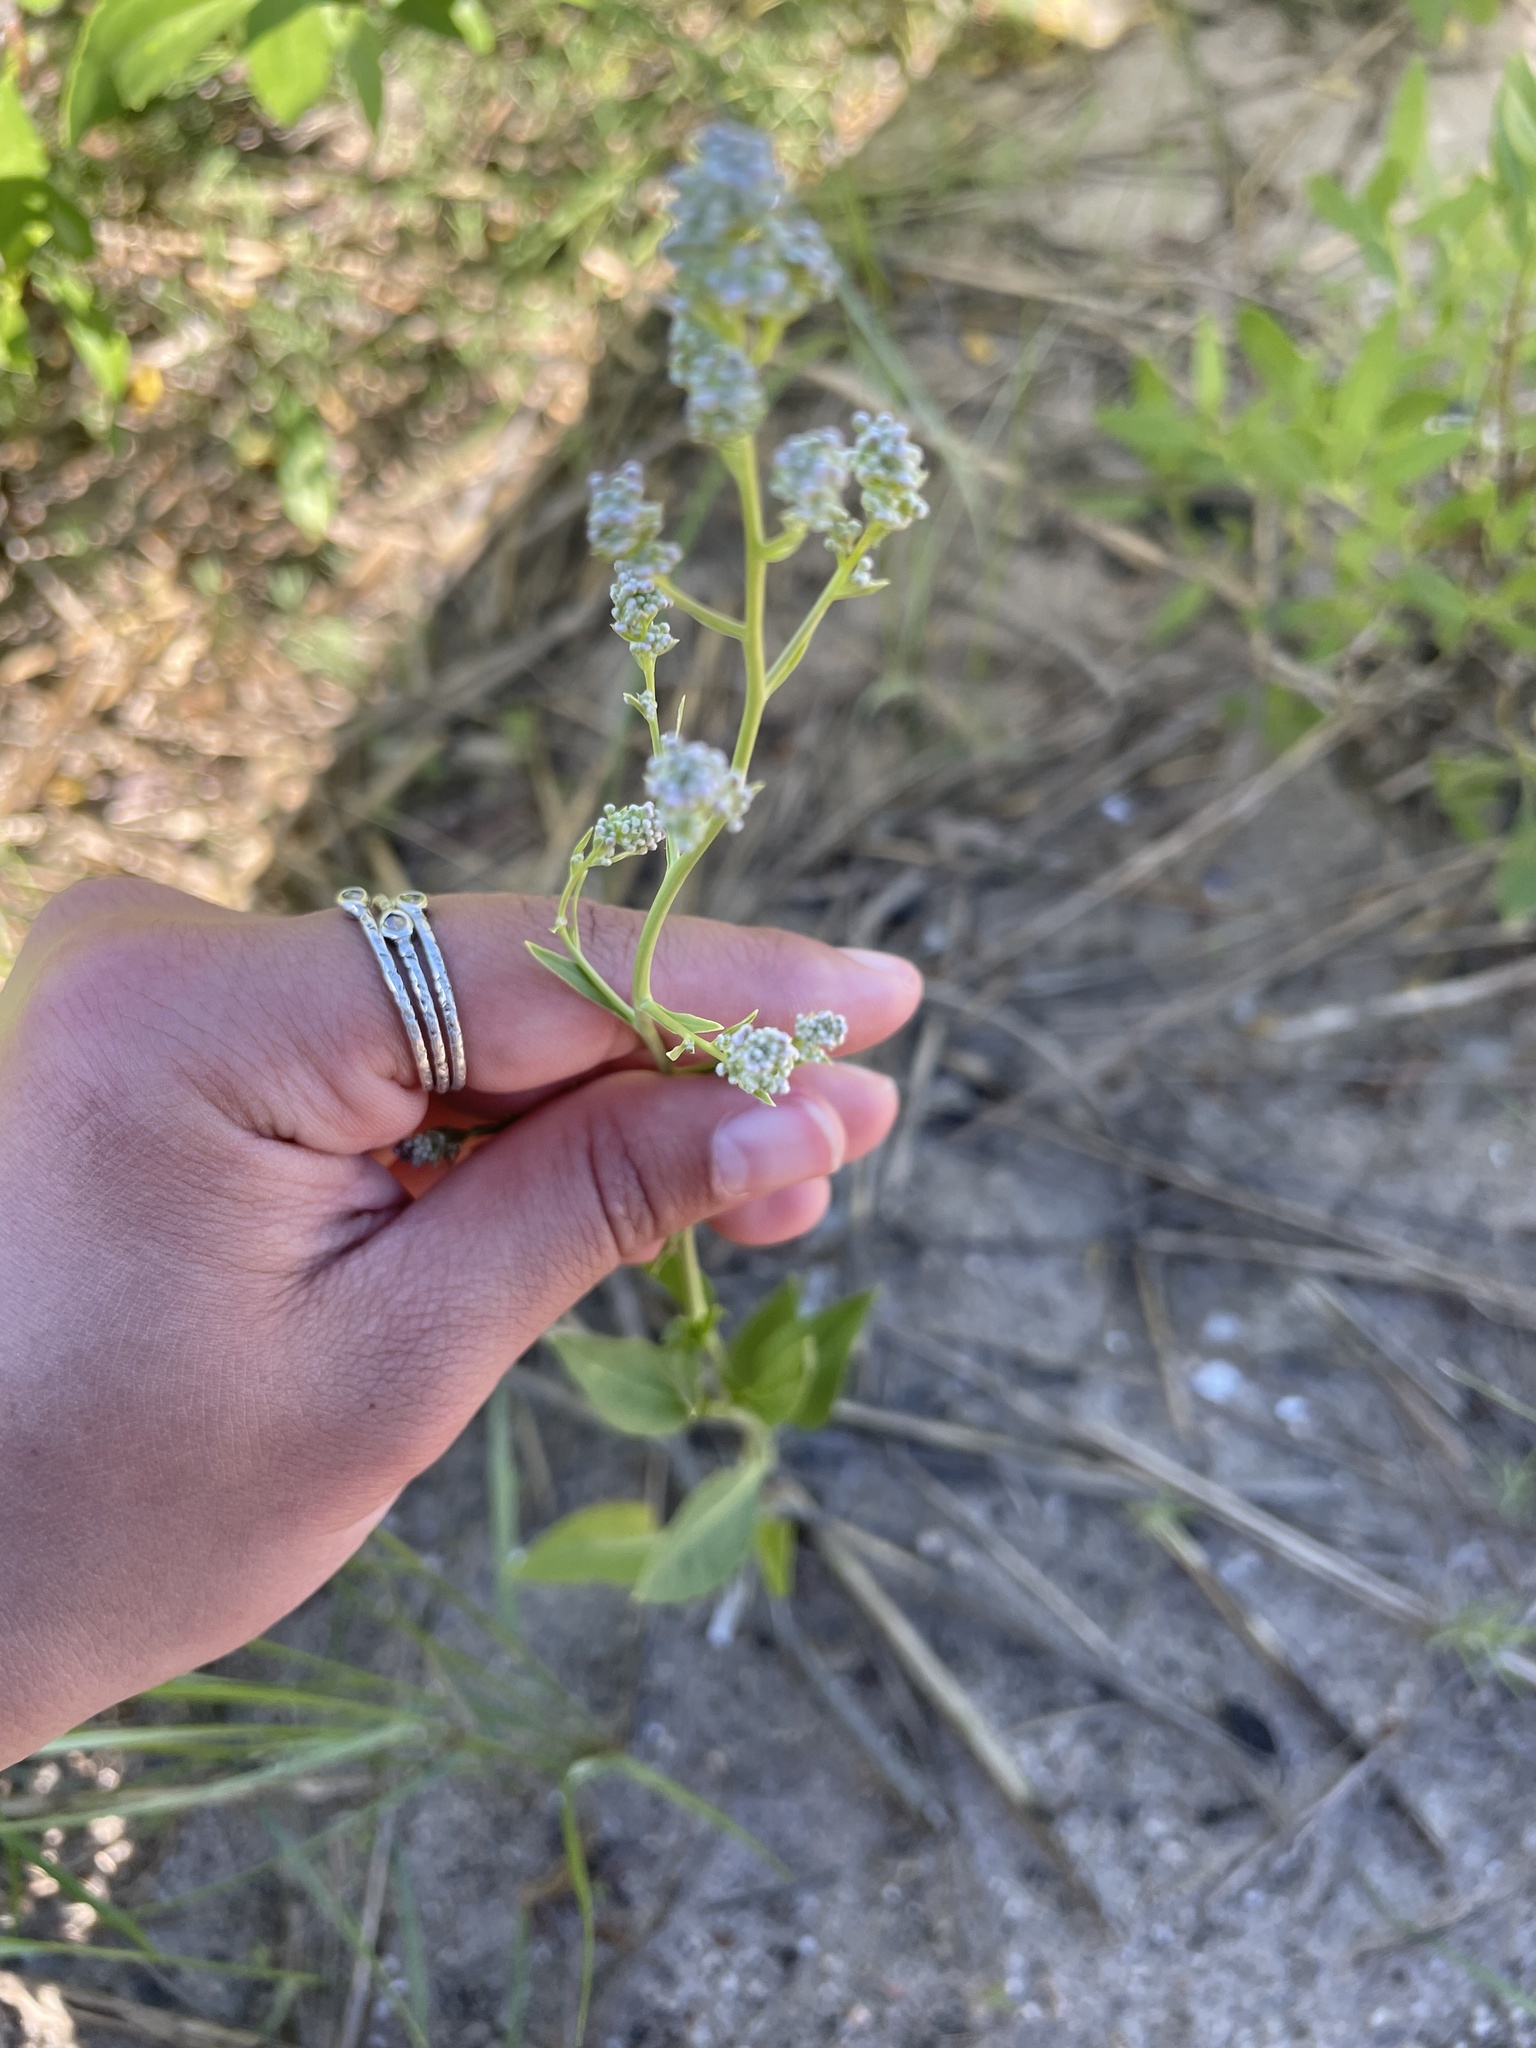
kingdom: Plantae
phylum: Tracheophyta
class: Magnoliopsida
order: Brassicales
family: Brassicaceae
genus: Lepidium
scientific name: Lepidium latifolium
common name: Dittander
